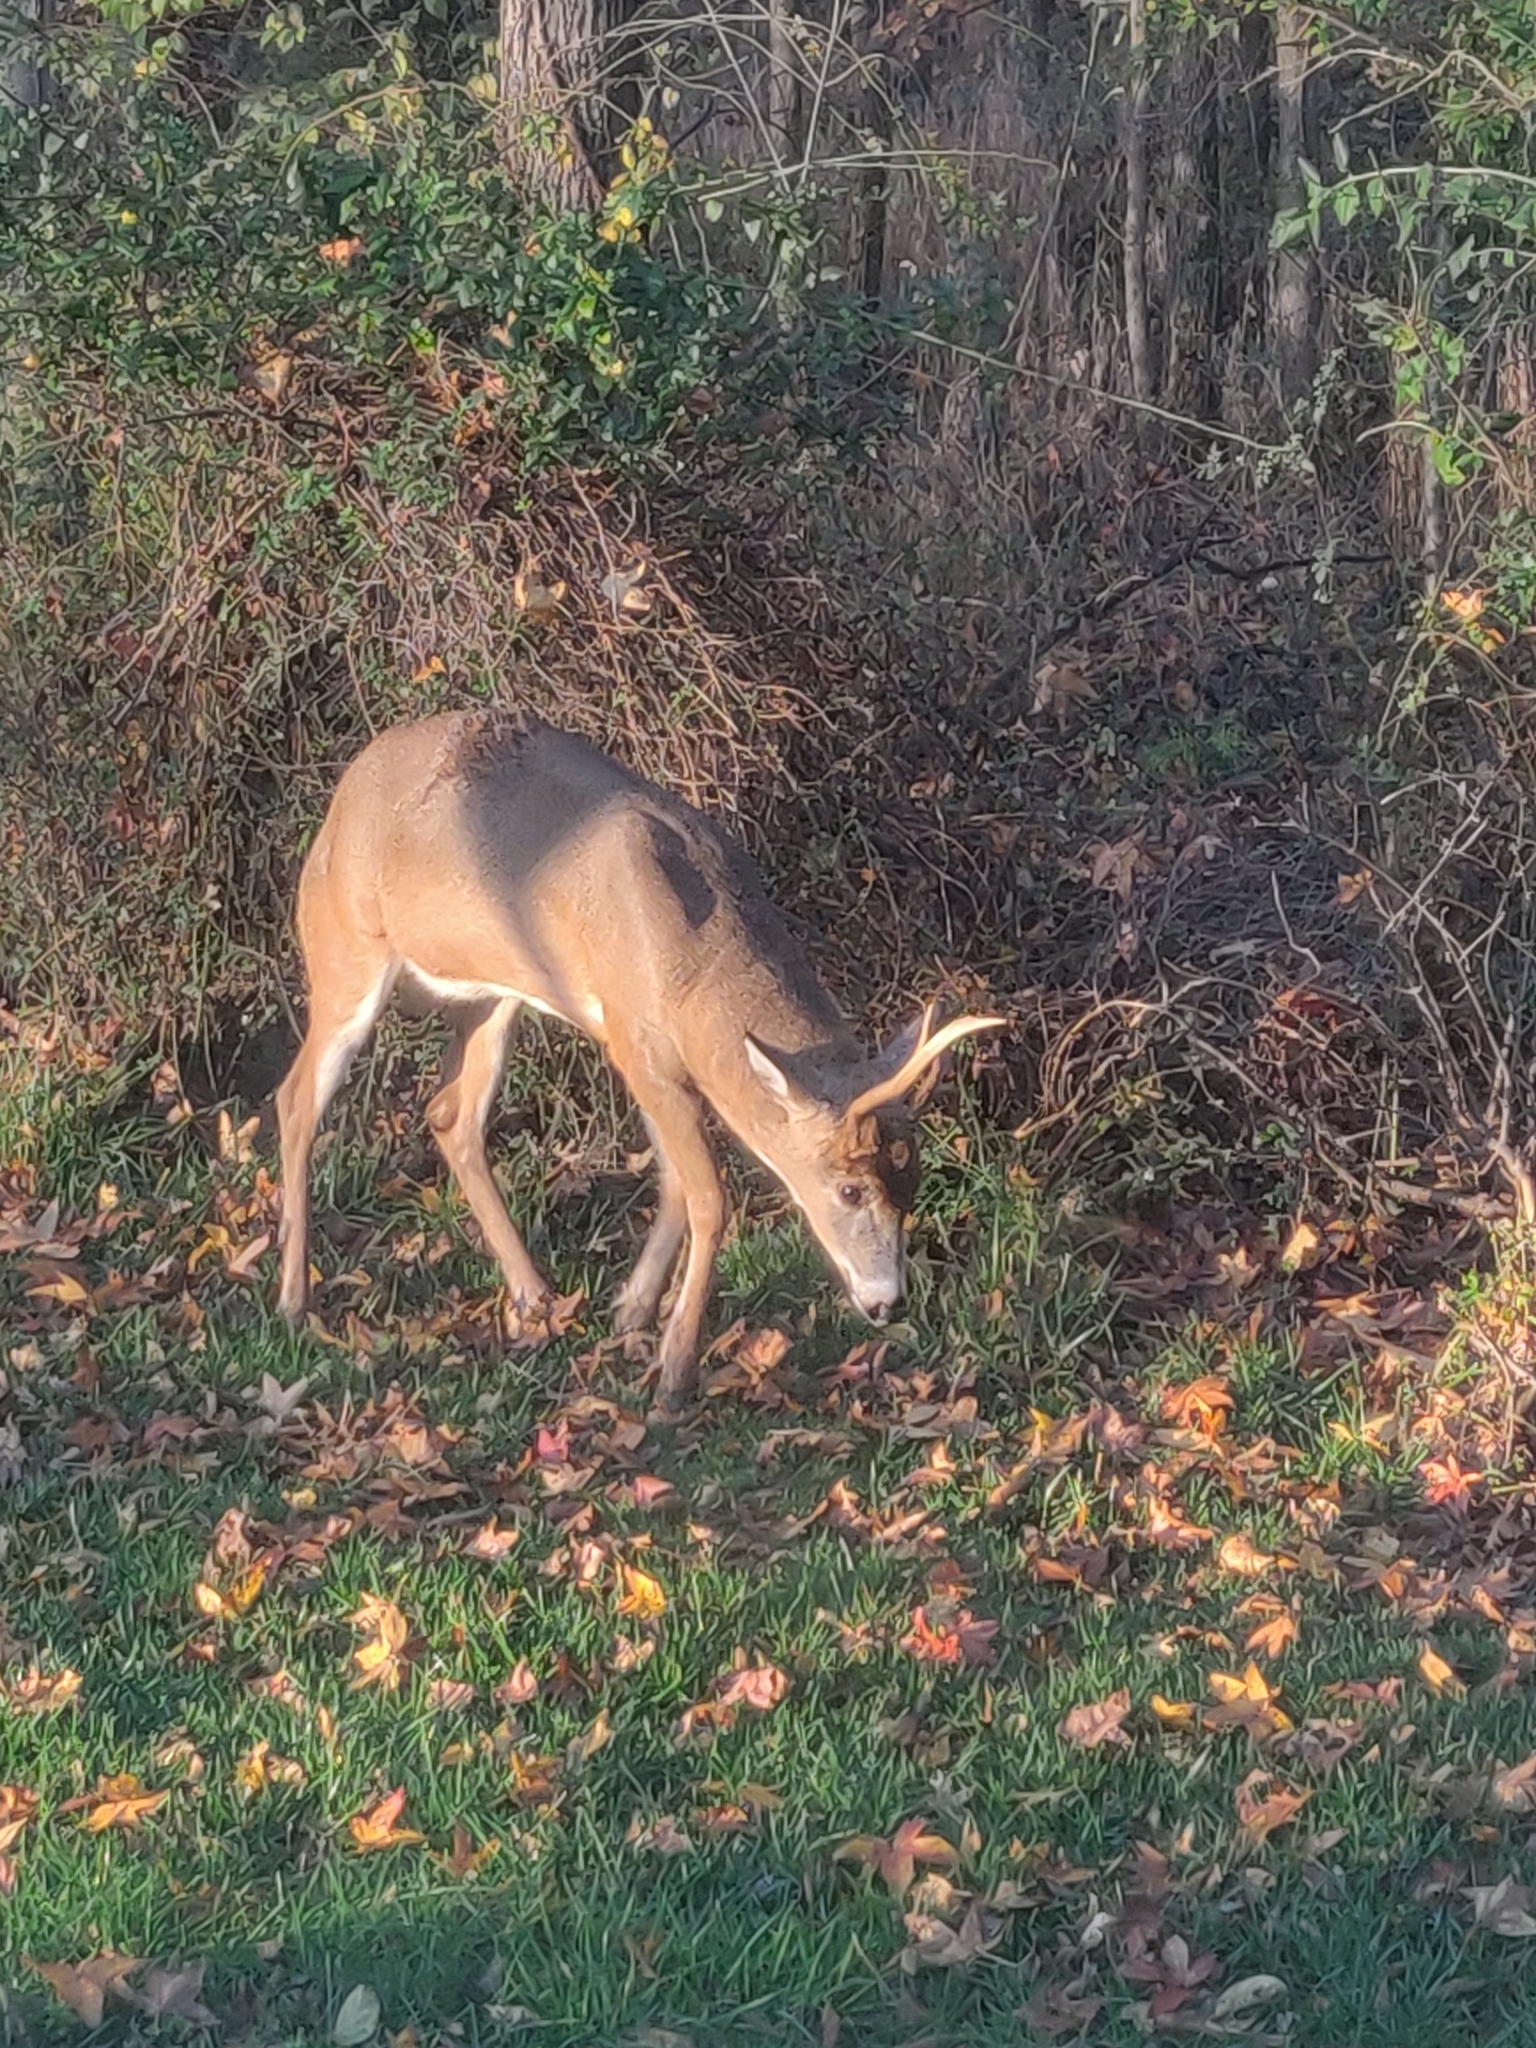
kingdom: Animalia
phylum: Chordata
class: Mammalia
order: Artiodactyla
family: Cervidae
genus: Odocoileus
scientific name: Odocoileus virginianus
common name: White-tailed deer
